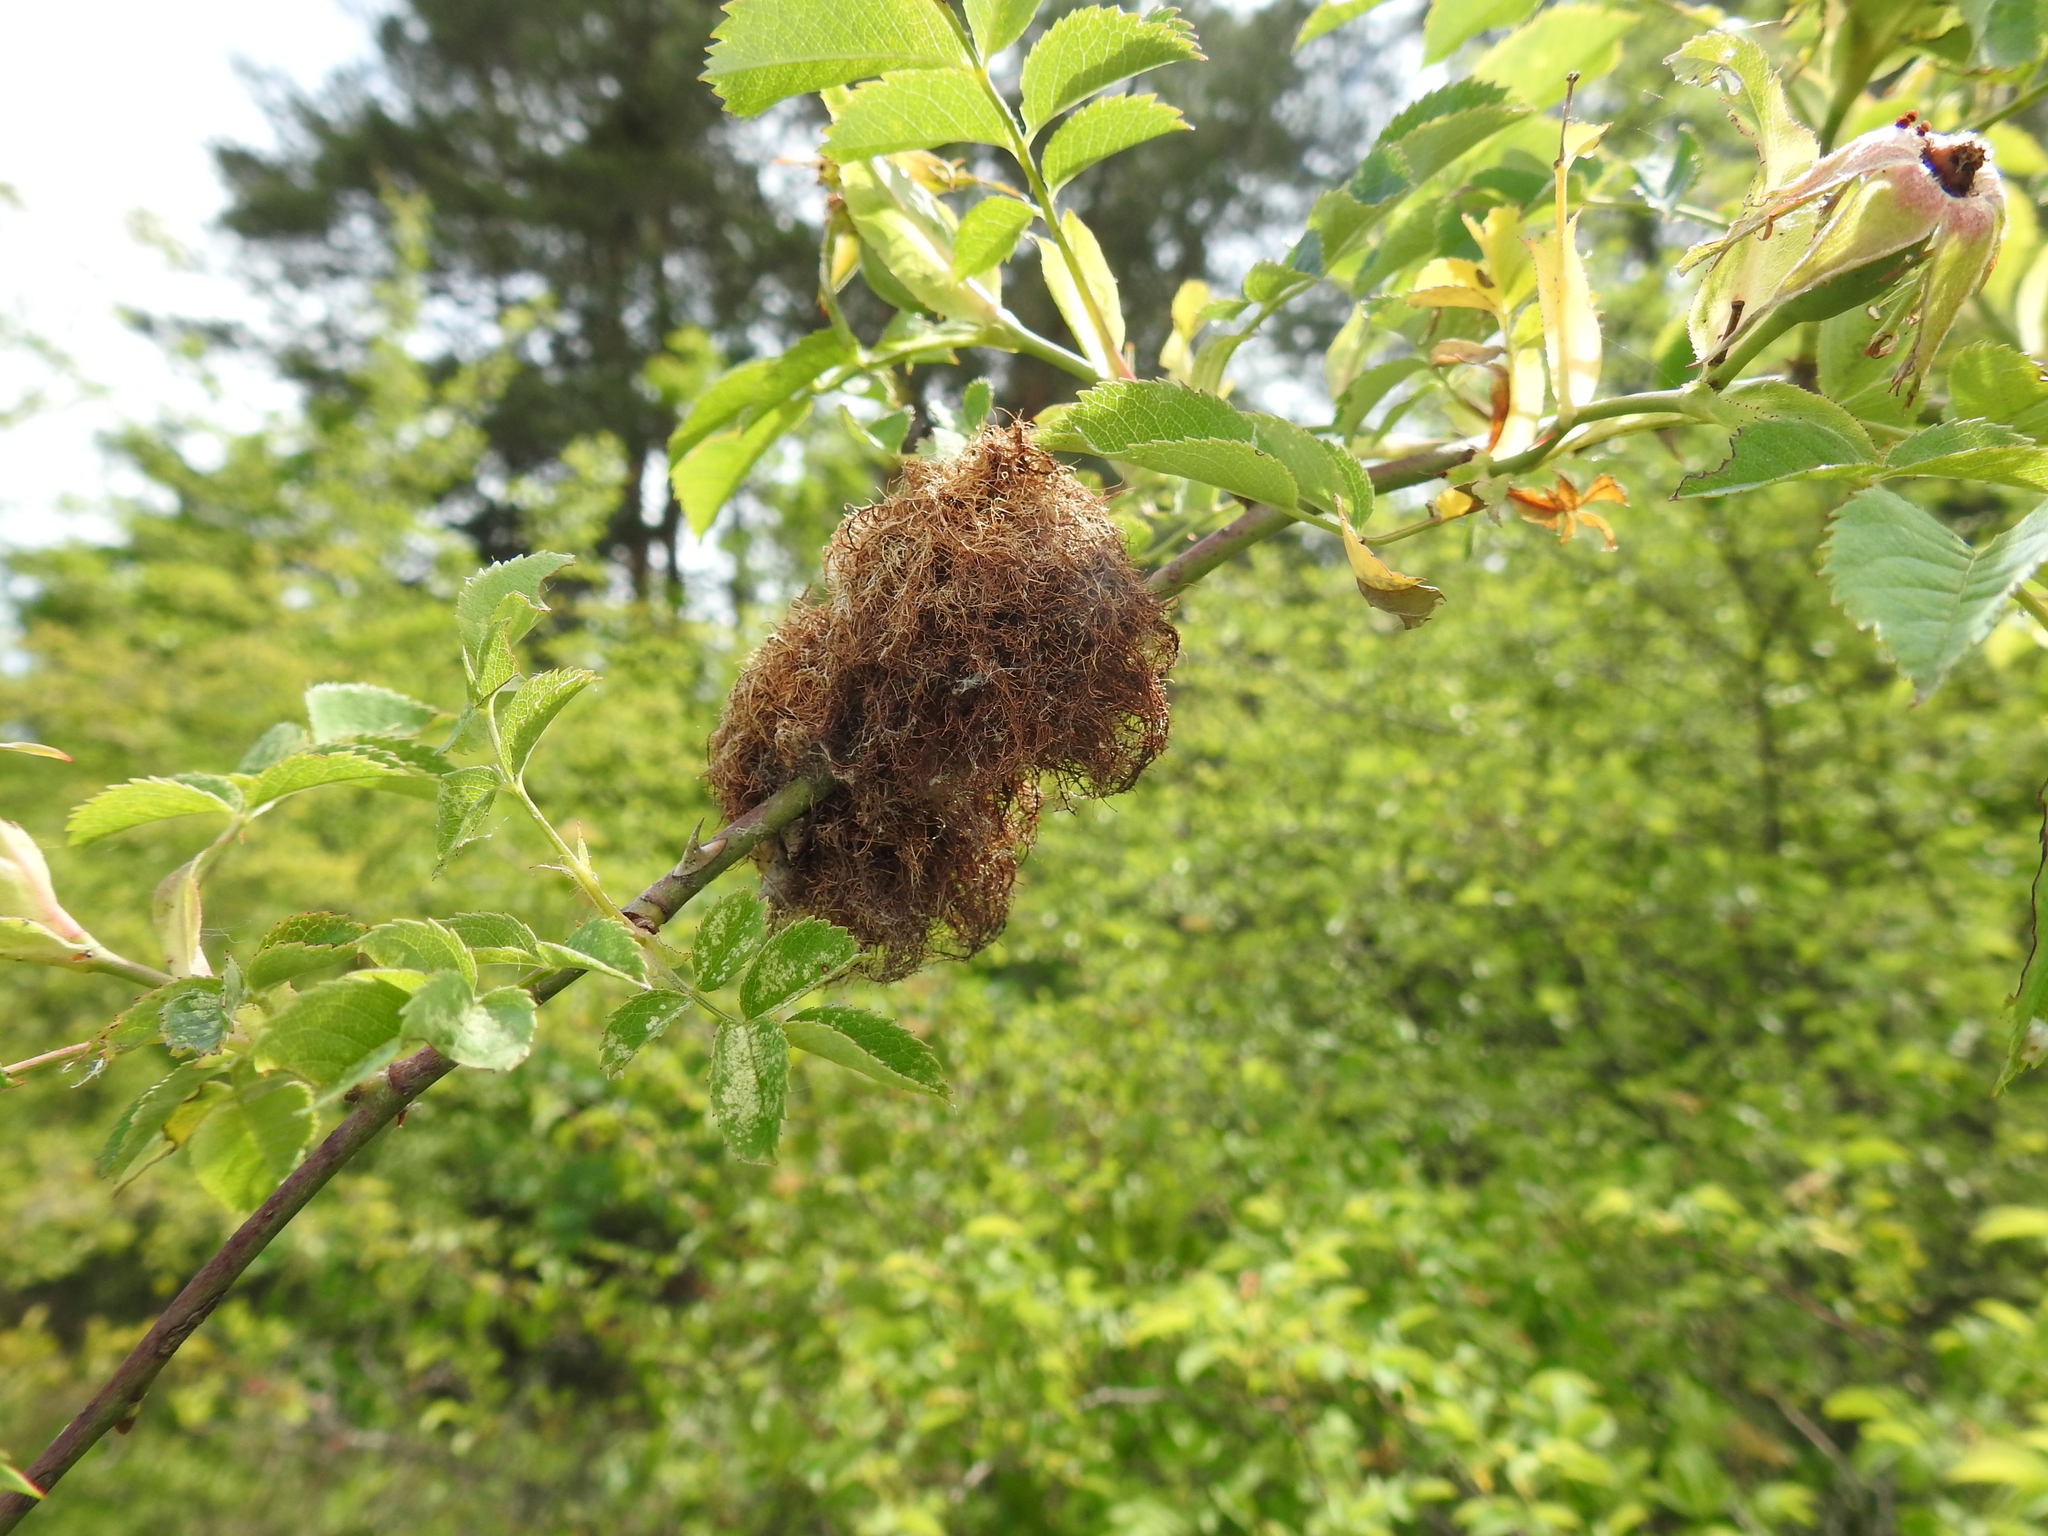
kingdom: Animalia
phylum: Arthropoda
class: Insecta
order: Hymenoptera
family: Cynipidae
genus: Diplolepis
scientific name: Diplolepis rosae
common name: Bedeguar gall
